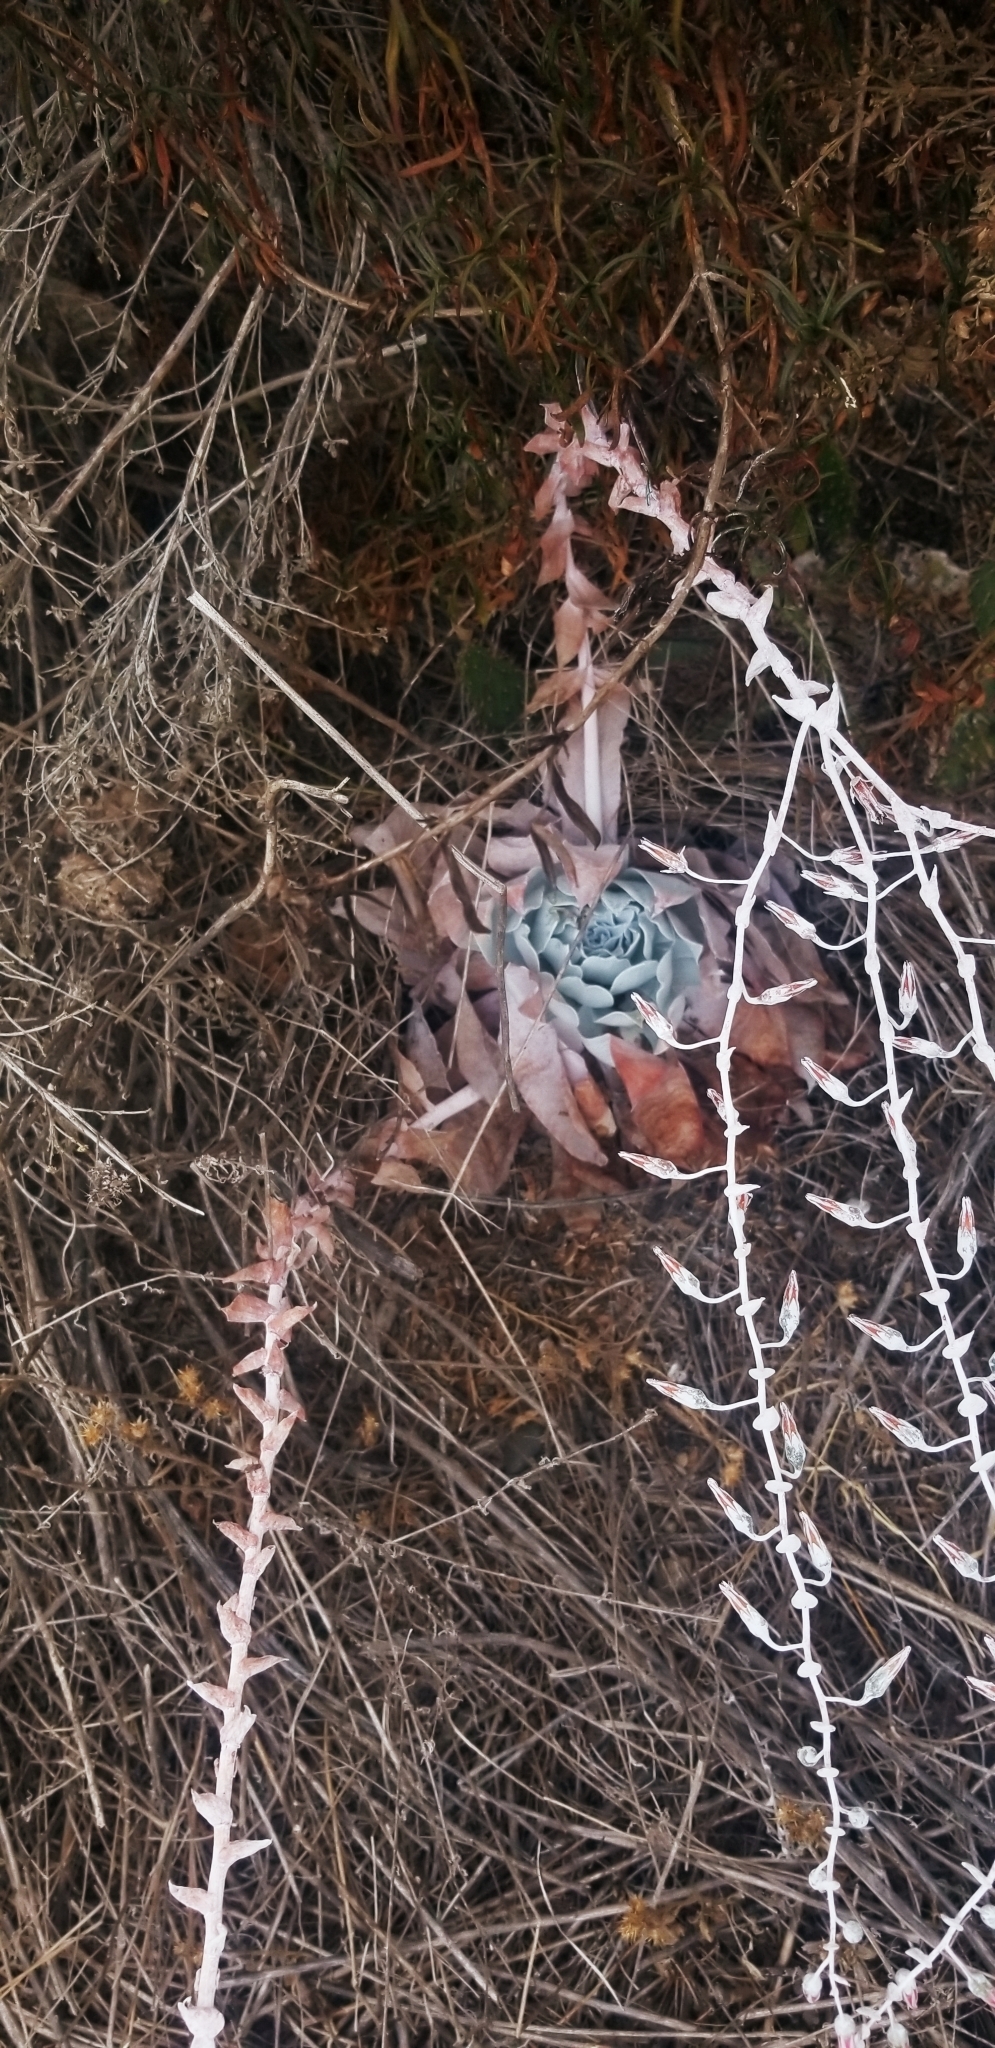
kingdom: Plantae
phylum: Tracheophyta
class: Magnoliopsida
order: Saxifragales
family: Crassulaceae
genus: Dudleya
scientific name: Dudleya pulverulenta
